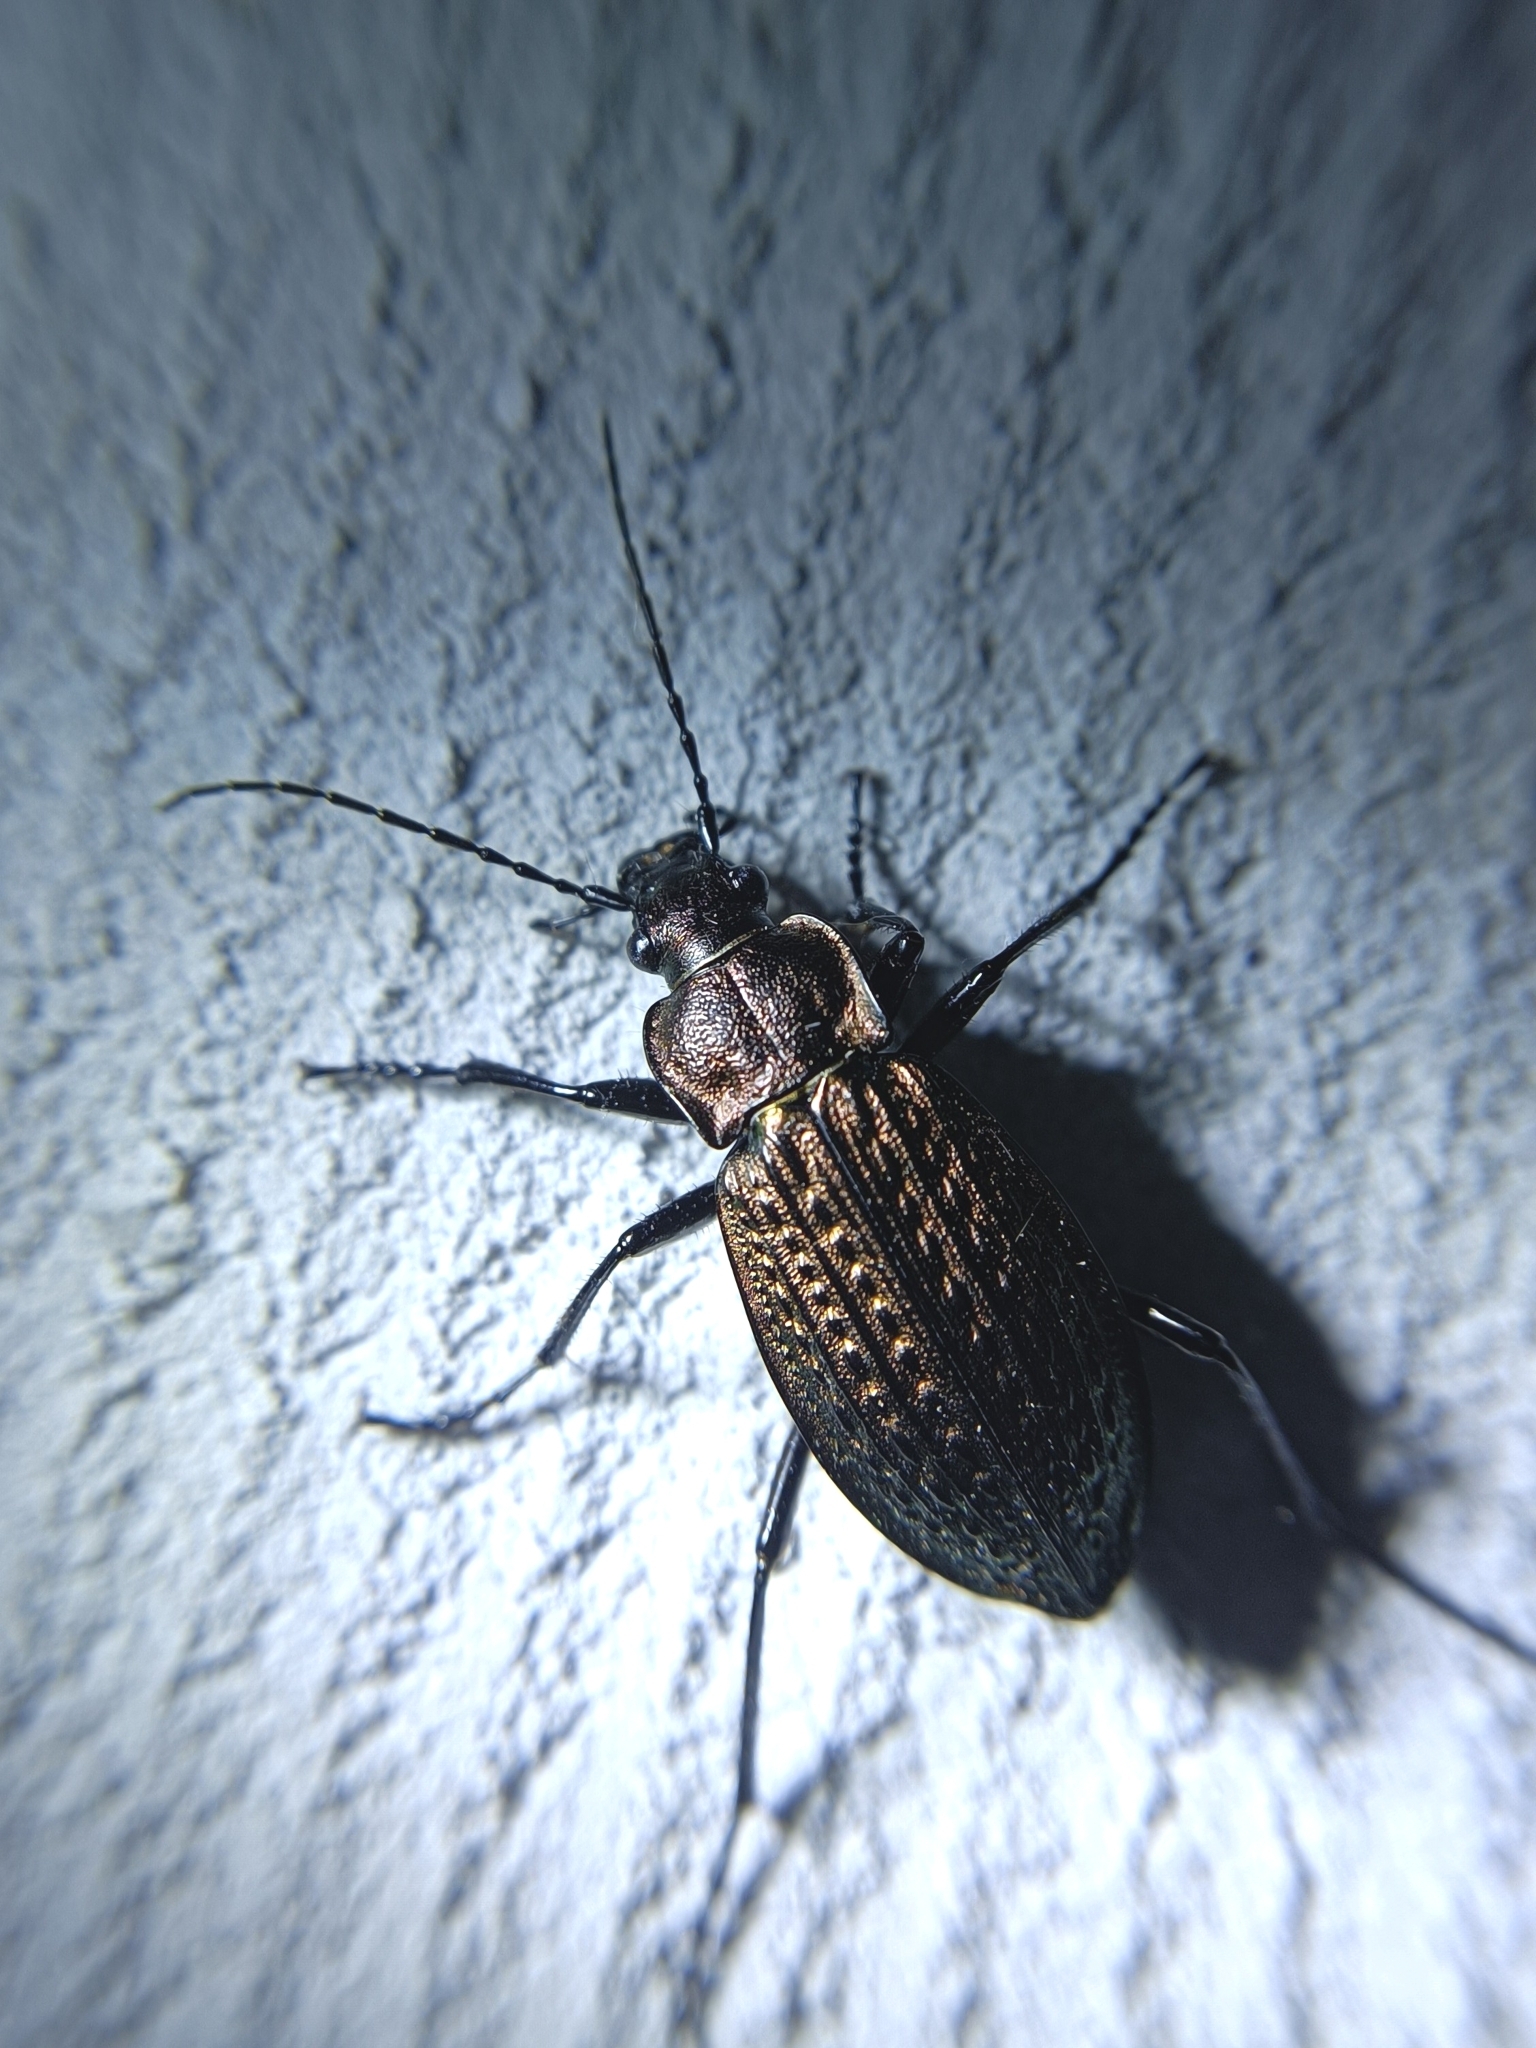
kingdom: Animalia
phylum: Arthropoda
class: Insecta
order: Coleoptera
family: Carabidae
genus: Carabus
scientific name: Carabus granulatus
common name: Granulate ground beetle
